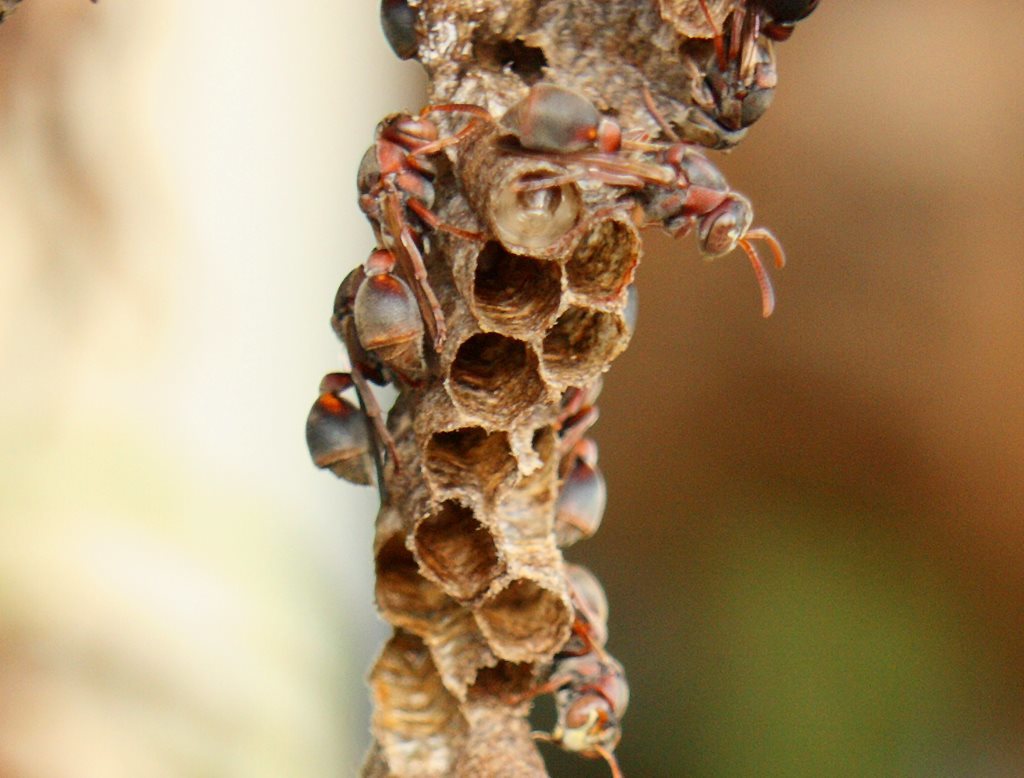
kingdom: Animalia
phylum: Arthropoda
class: Insecta
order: Hymenoptera
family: Vespidae
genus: Ropalidia
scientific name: Ropalidia revolutionalis
